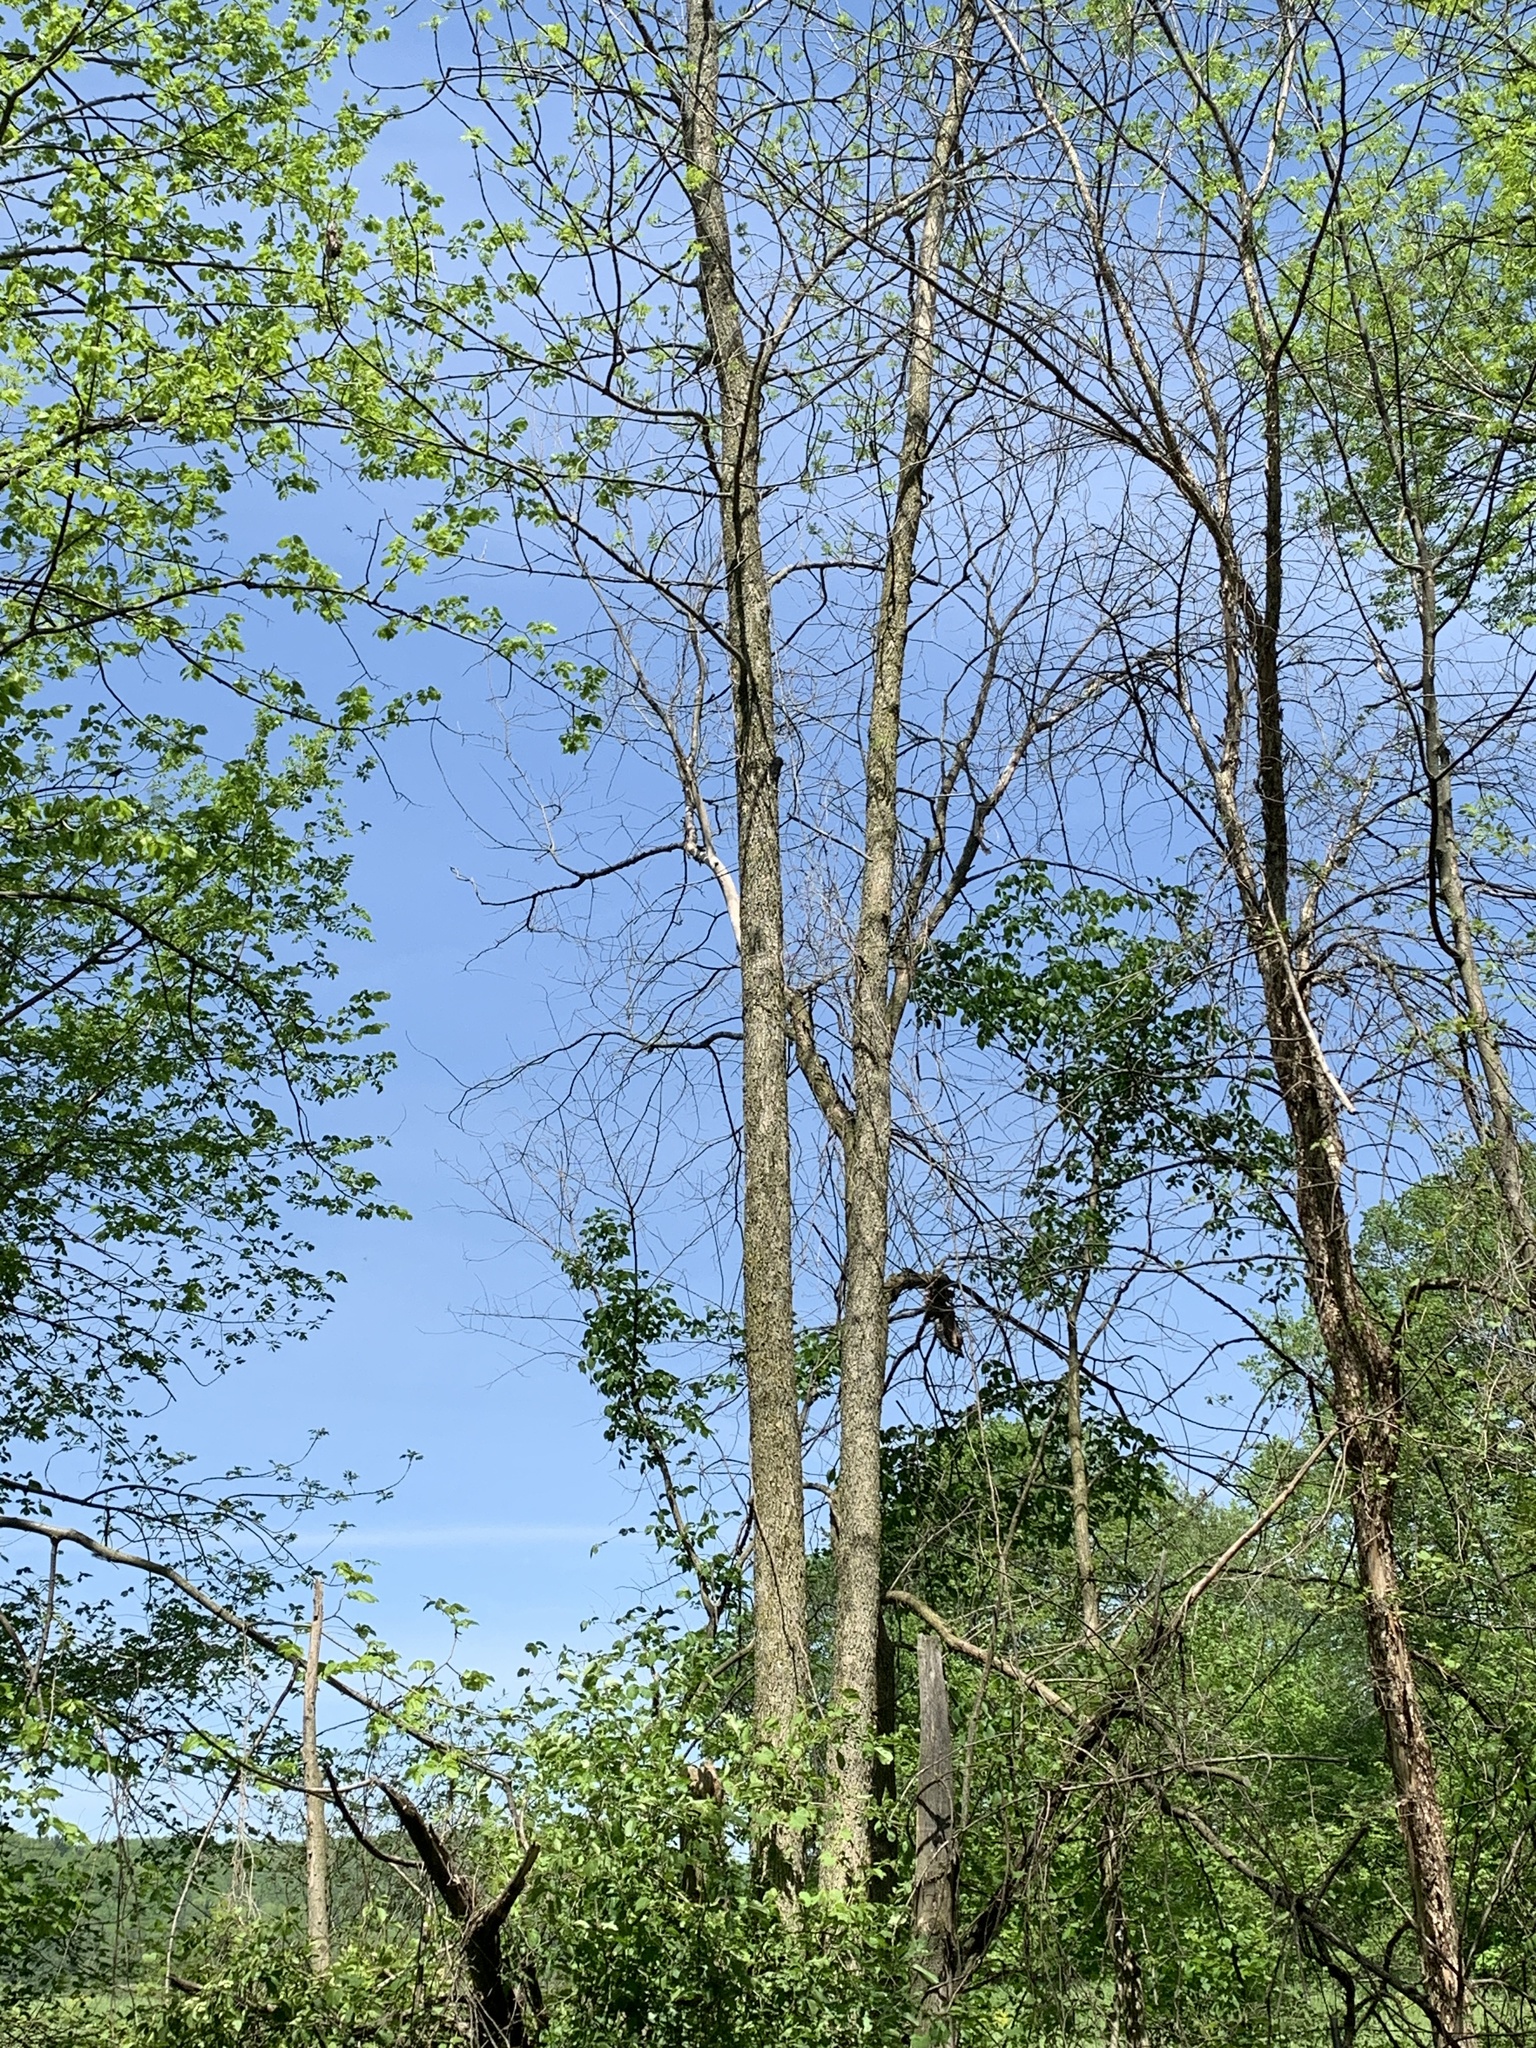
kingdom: Plantae
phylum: Tracheophyta
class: Magnoliopsida
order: Lamiales
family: Oleaceae
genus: Fraxinus
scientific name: Fraxinus nigra
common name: Black ash
